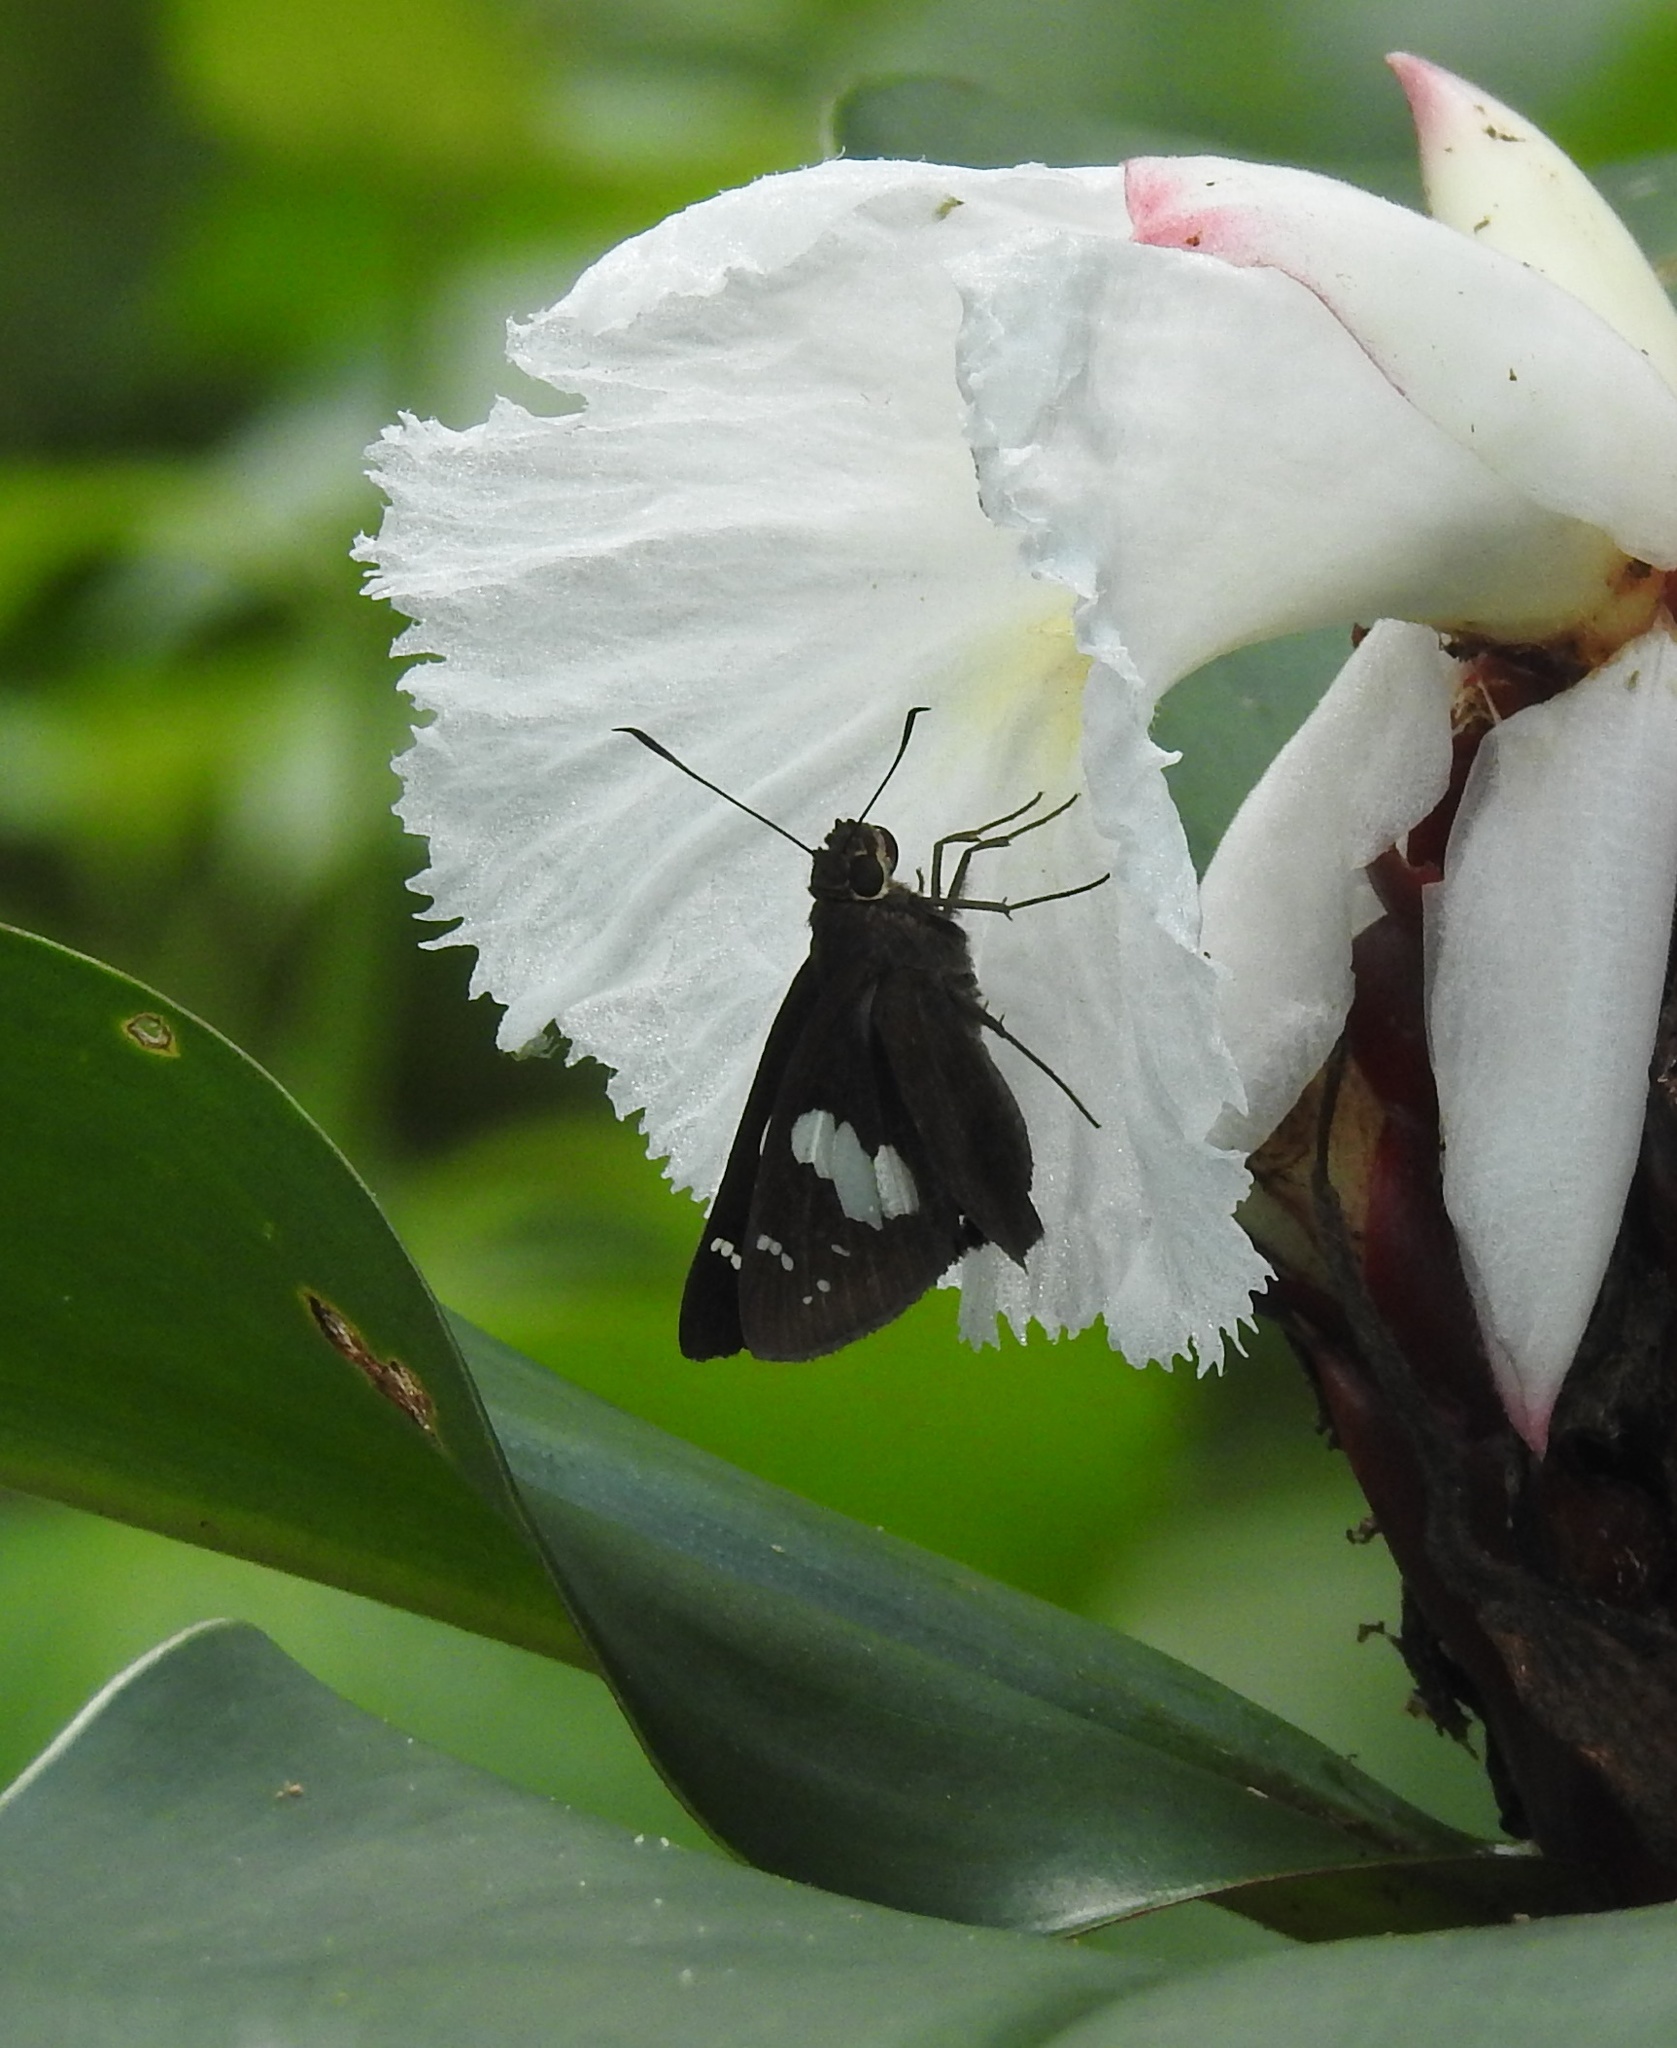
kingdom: Animalia
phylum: Arthropoda
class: Insecta
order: Lepidoptera
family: Hesperiidae
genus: Notocrypta
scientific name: Notocrypta curvifascia
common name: Restricted demon
